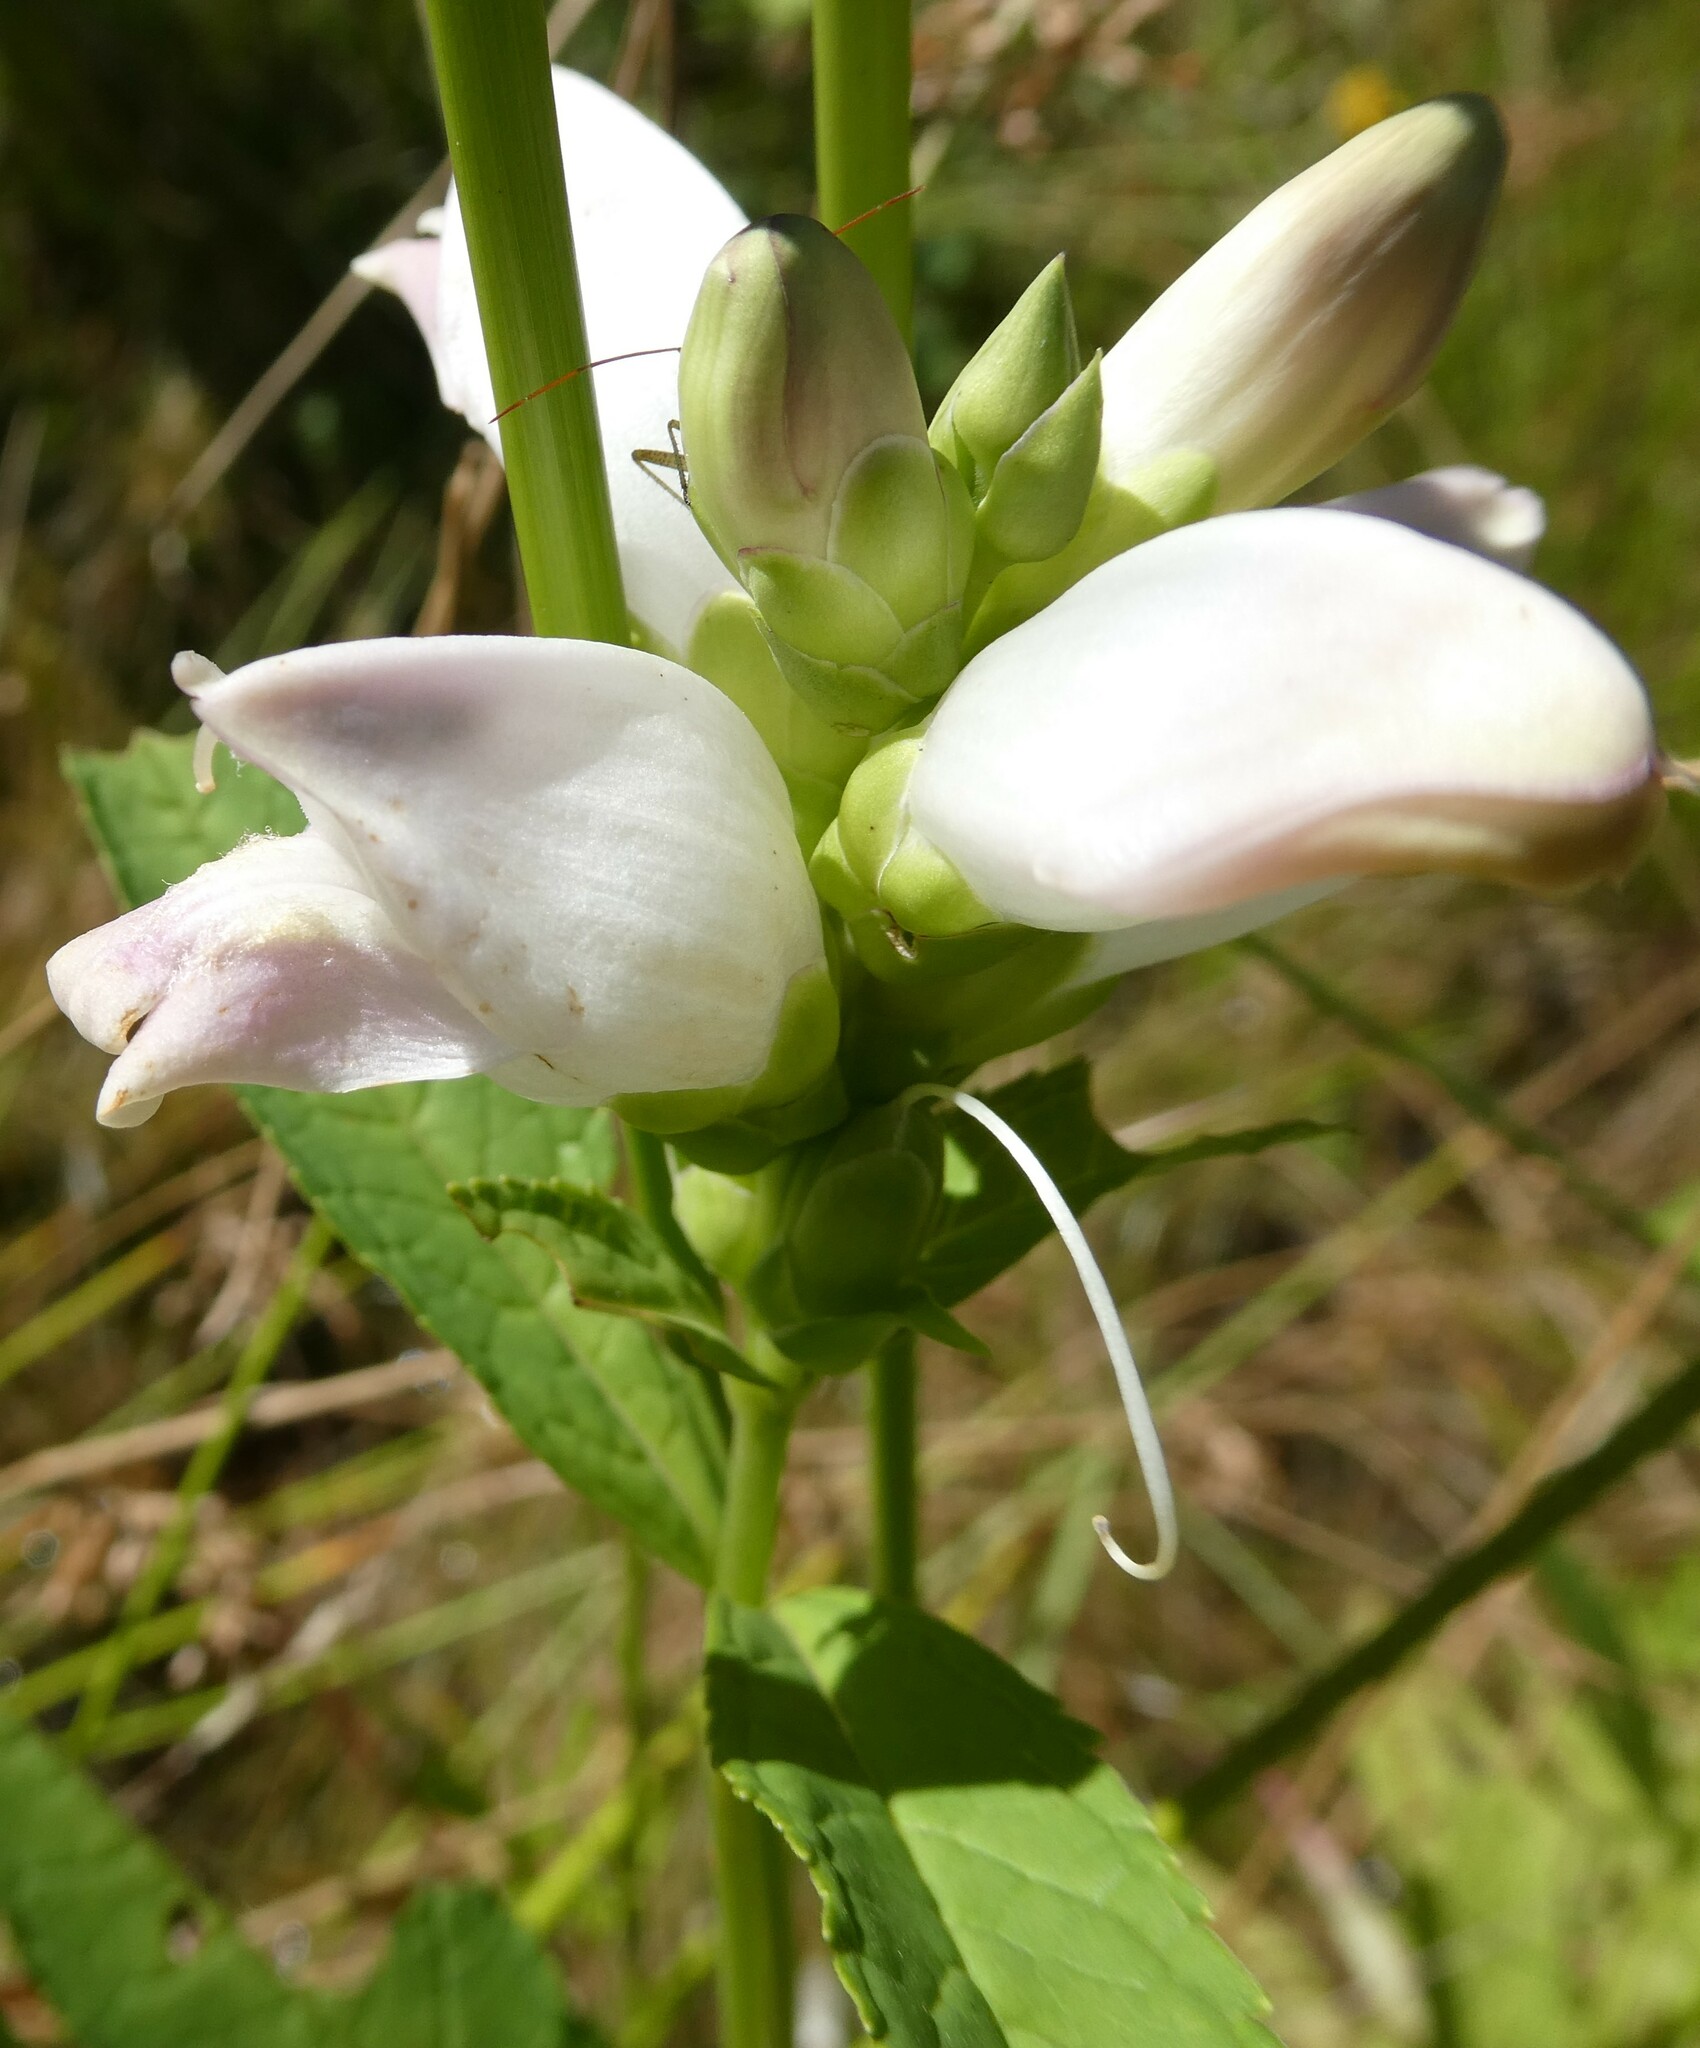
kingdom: Plantae
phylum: Tracheophyta
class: Magnoliopsida
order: Lamiales
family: Plantaginaceae
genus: Chelone
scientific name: Chelone glabra
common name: Snakehead
